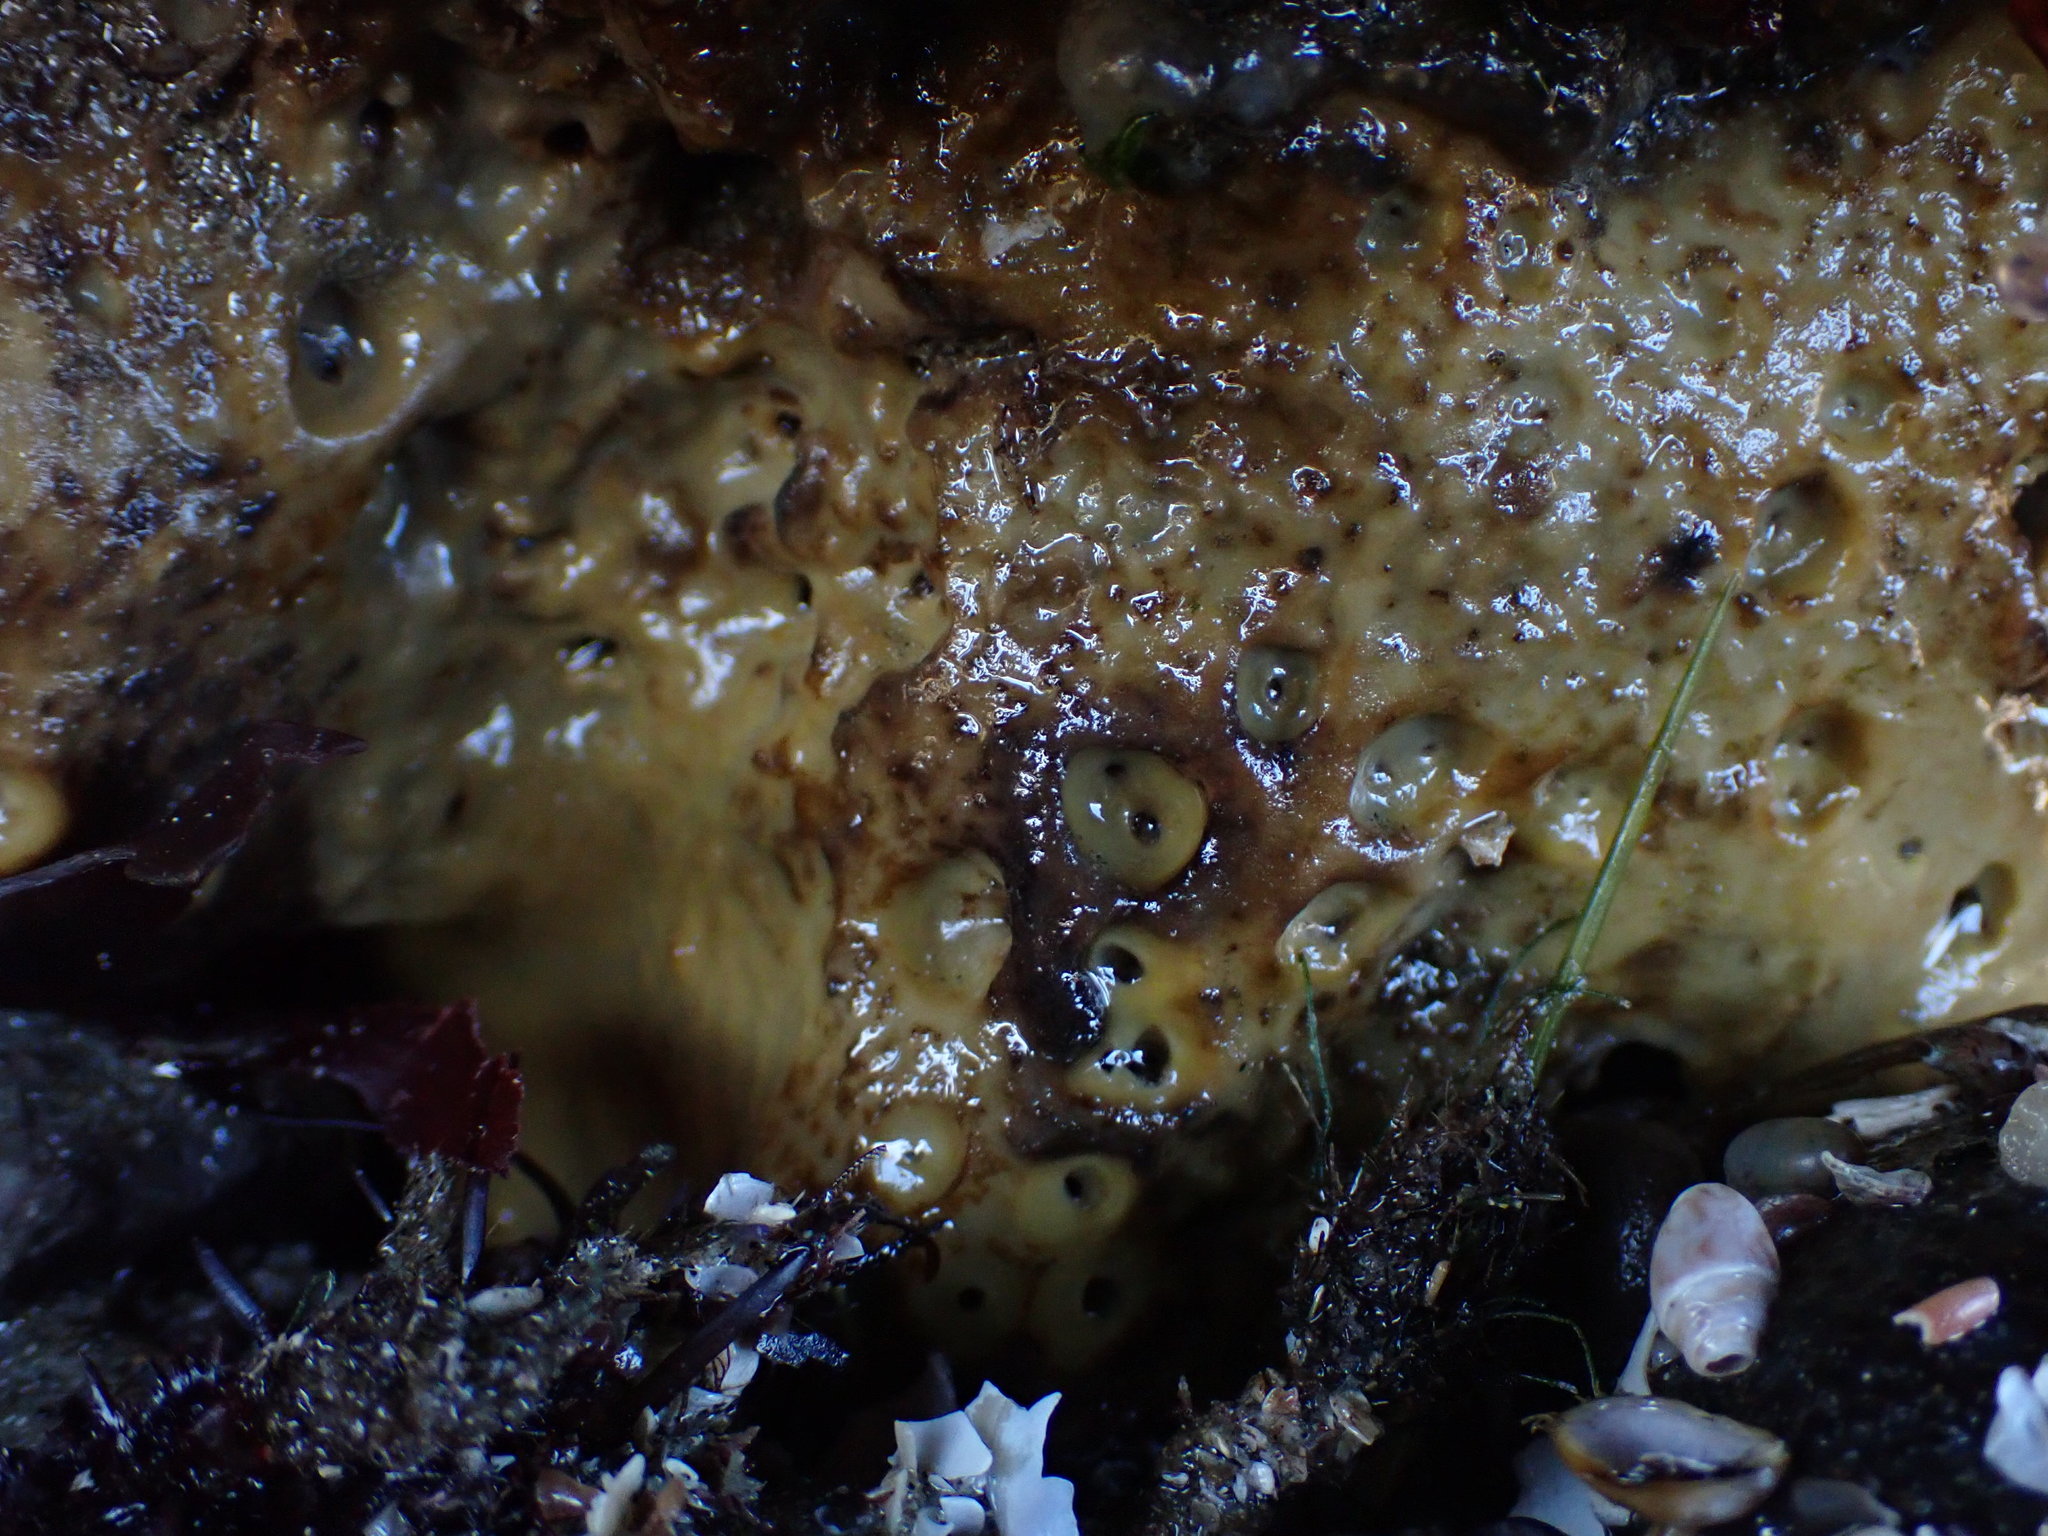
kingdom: Animalia
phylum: Porifera
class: Demospongiae
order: Clionaida
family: Clionaidae
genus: Spheciospongia
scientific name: Spheciospongia confoederata
